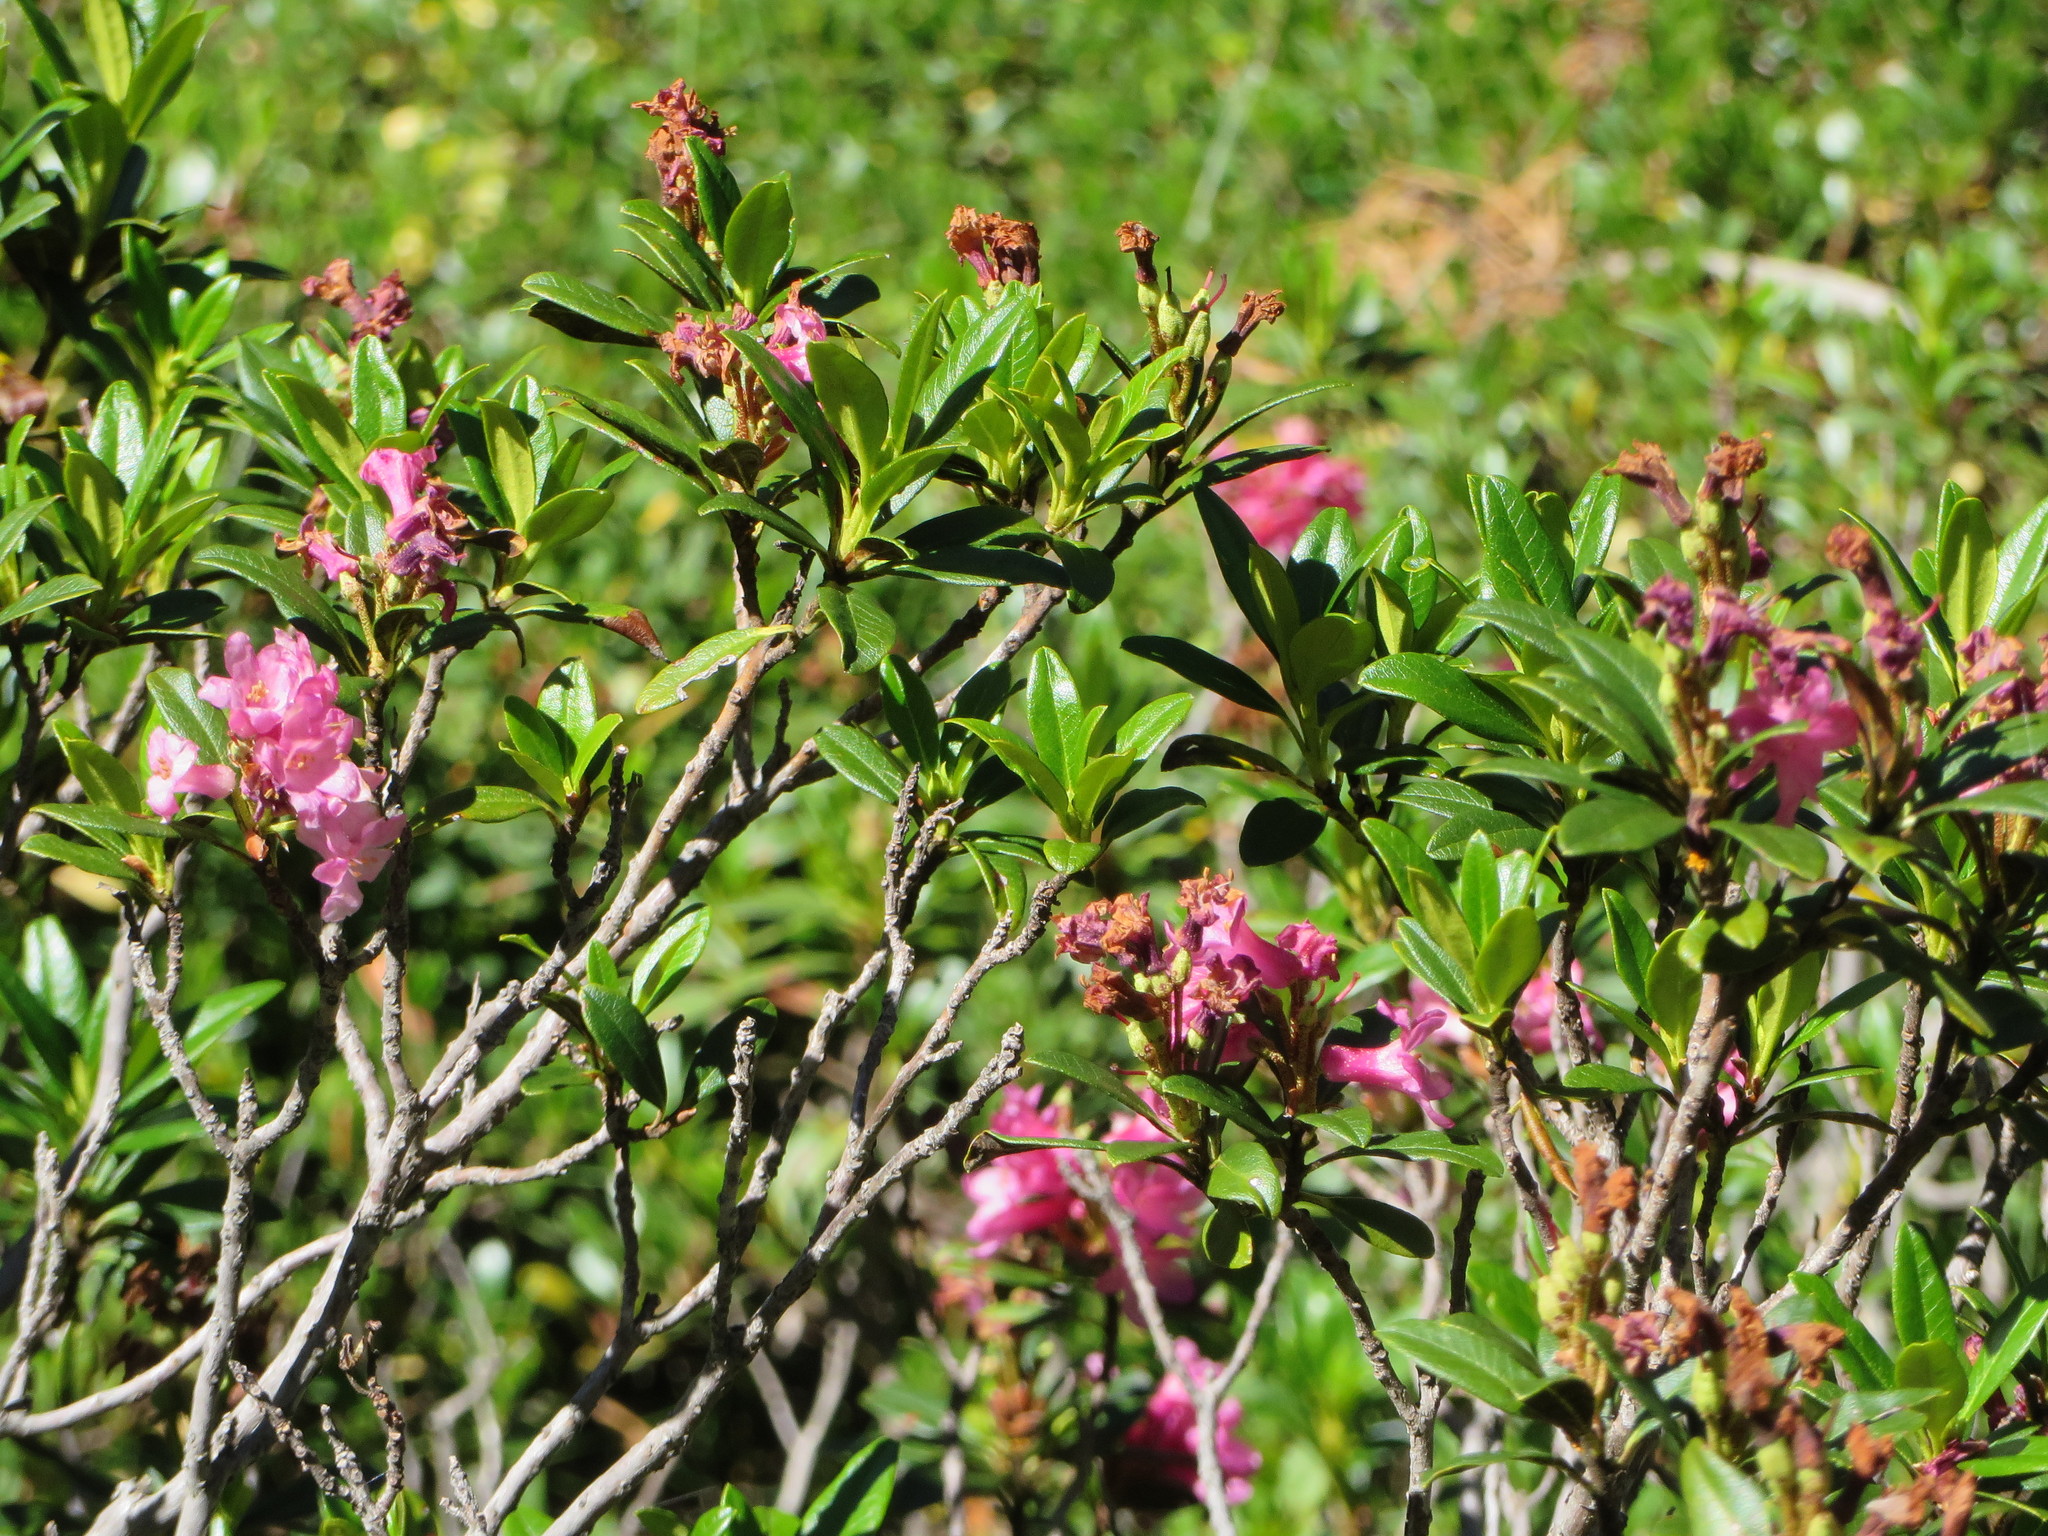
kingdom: Plantae
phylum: Tracheophyta
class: Magnoliopsida
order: Ericales
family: Ericaceae
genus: Rhododendron
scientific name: Rhododendron ferrugineum
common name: Alpenrose
